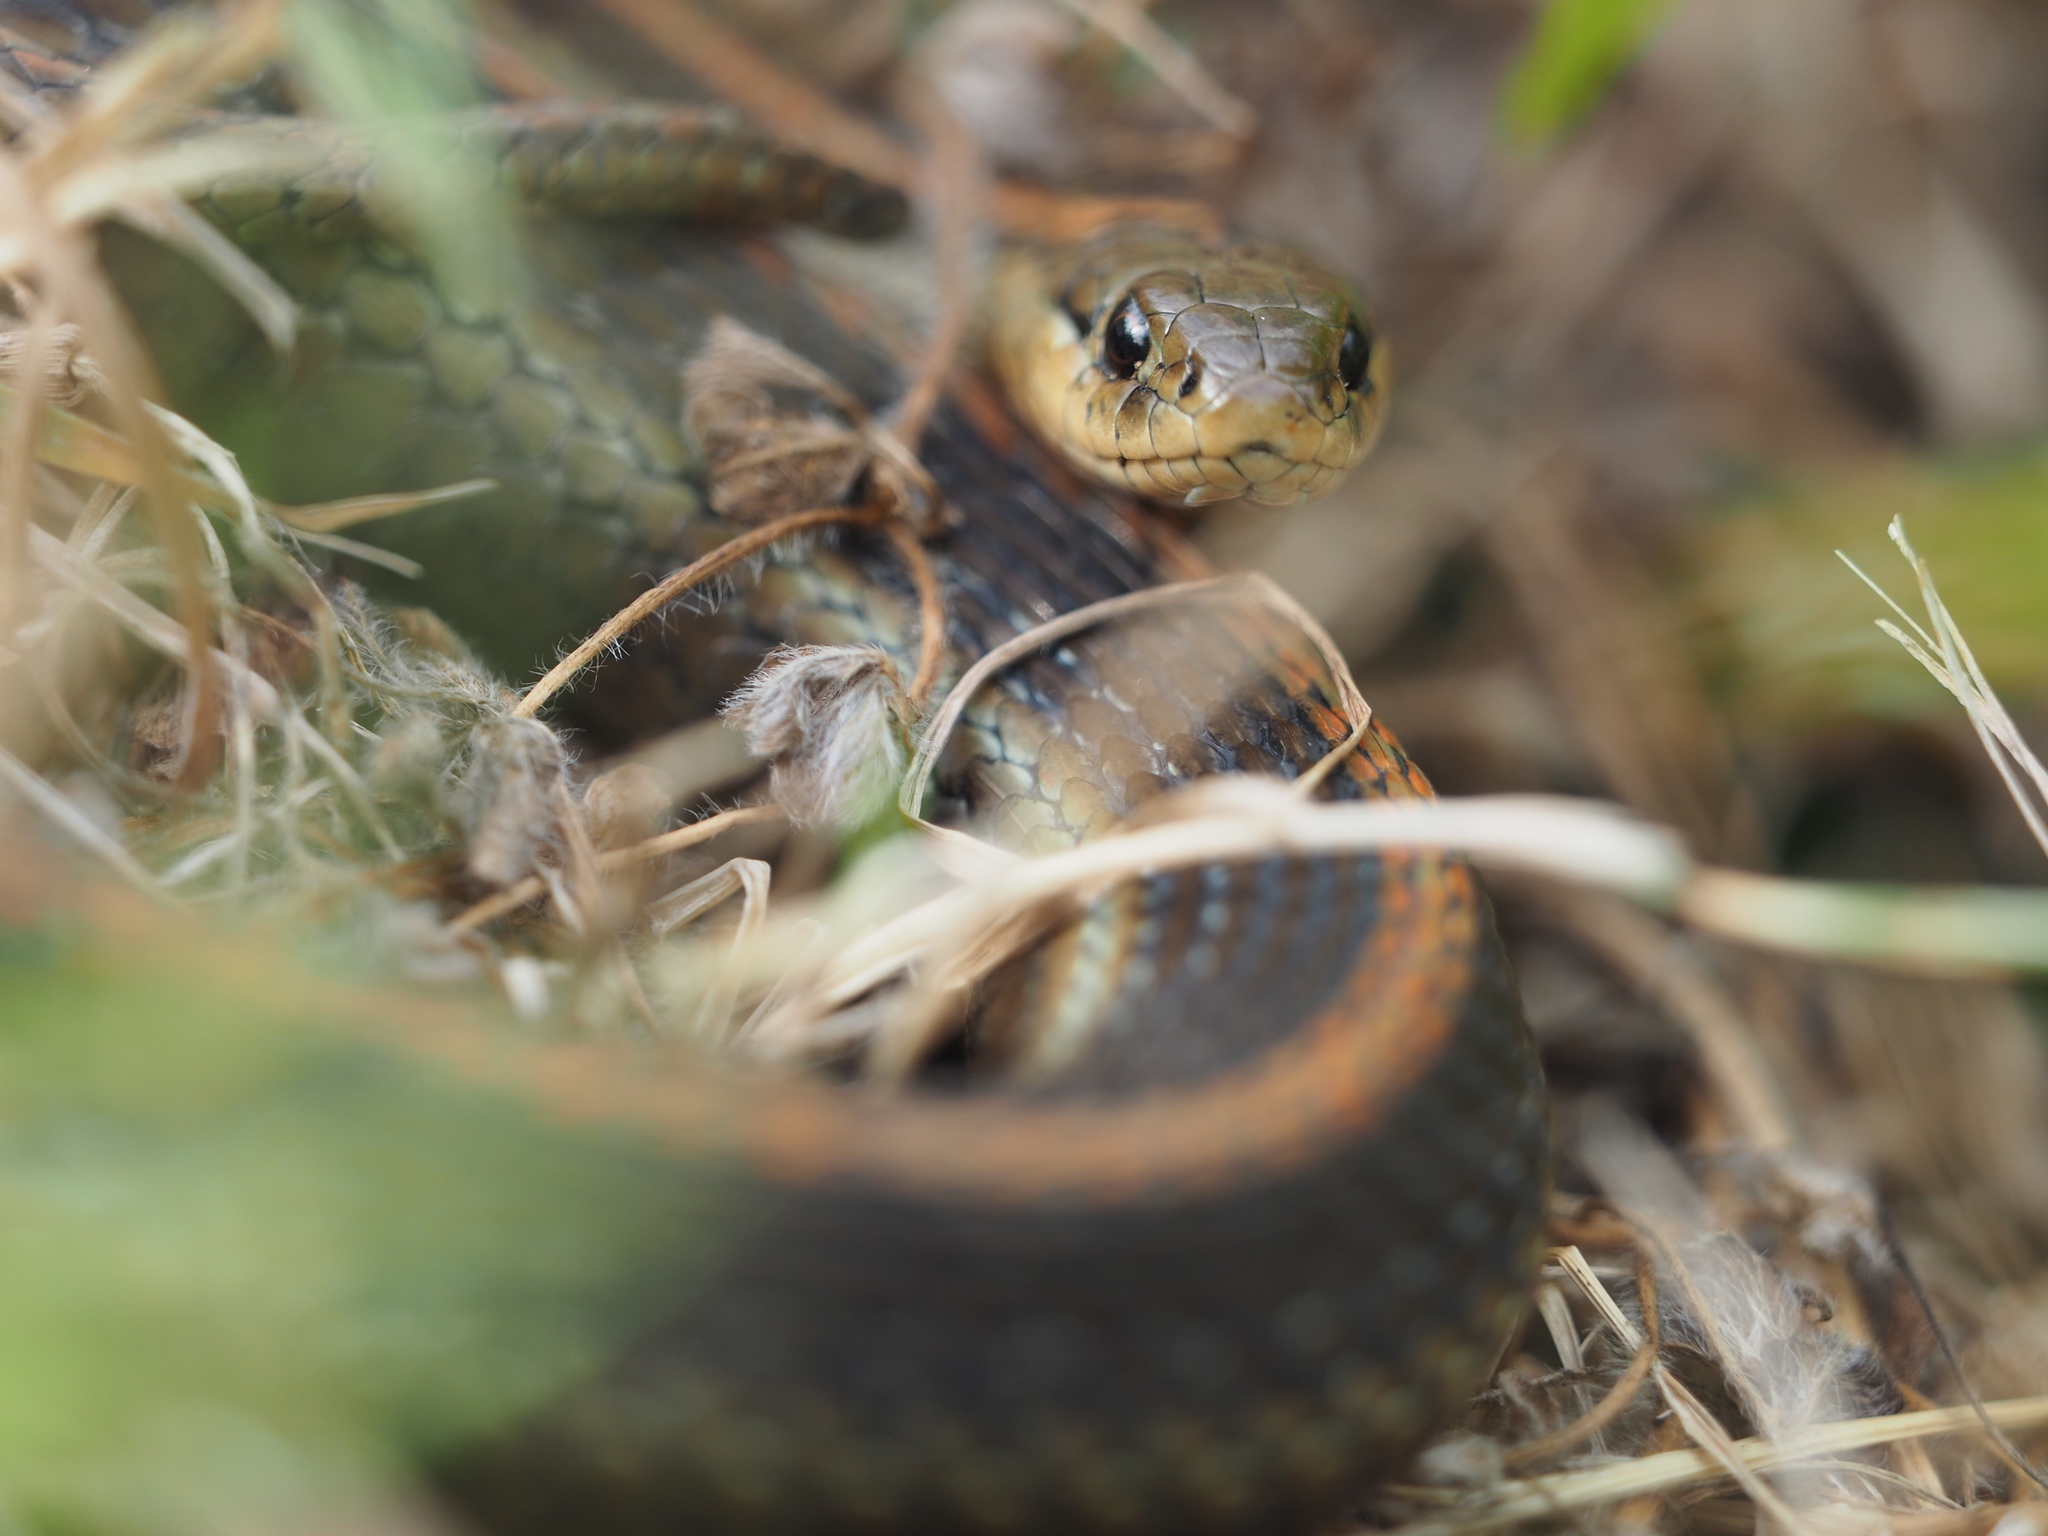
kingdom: Animalia
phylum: Chordata
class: Squamata
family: Colubridae
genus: Thamnophis
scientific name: Thamnophis ordinoides
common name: Northwestern garter snake
